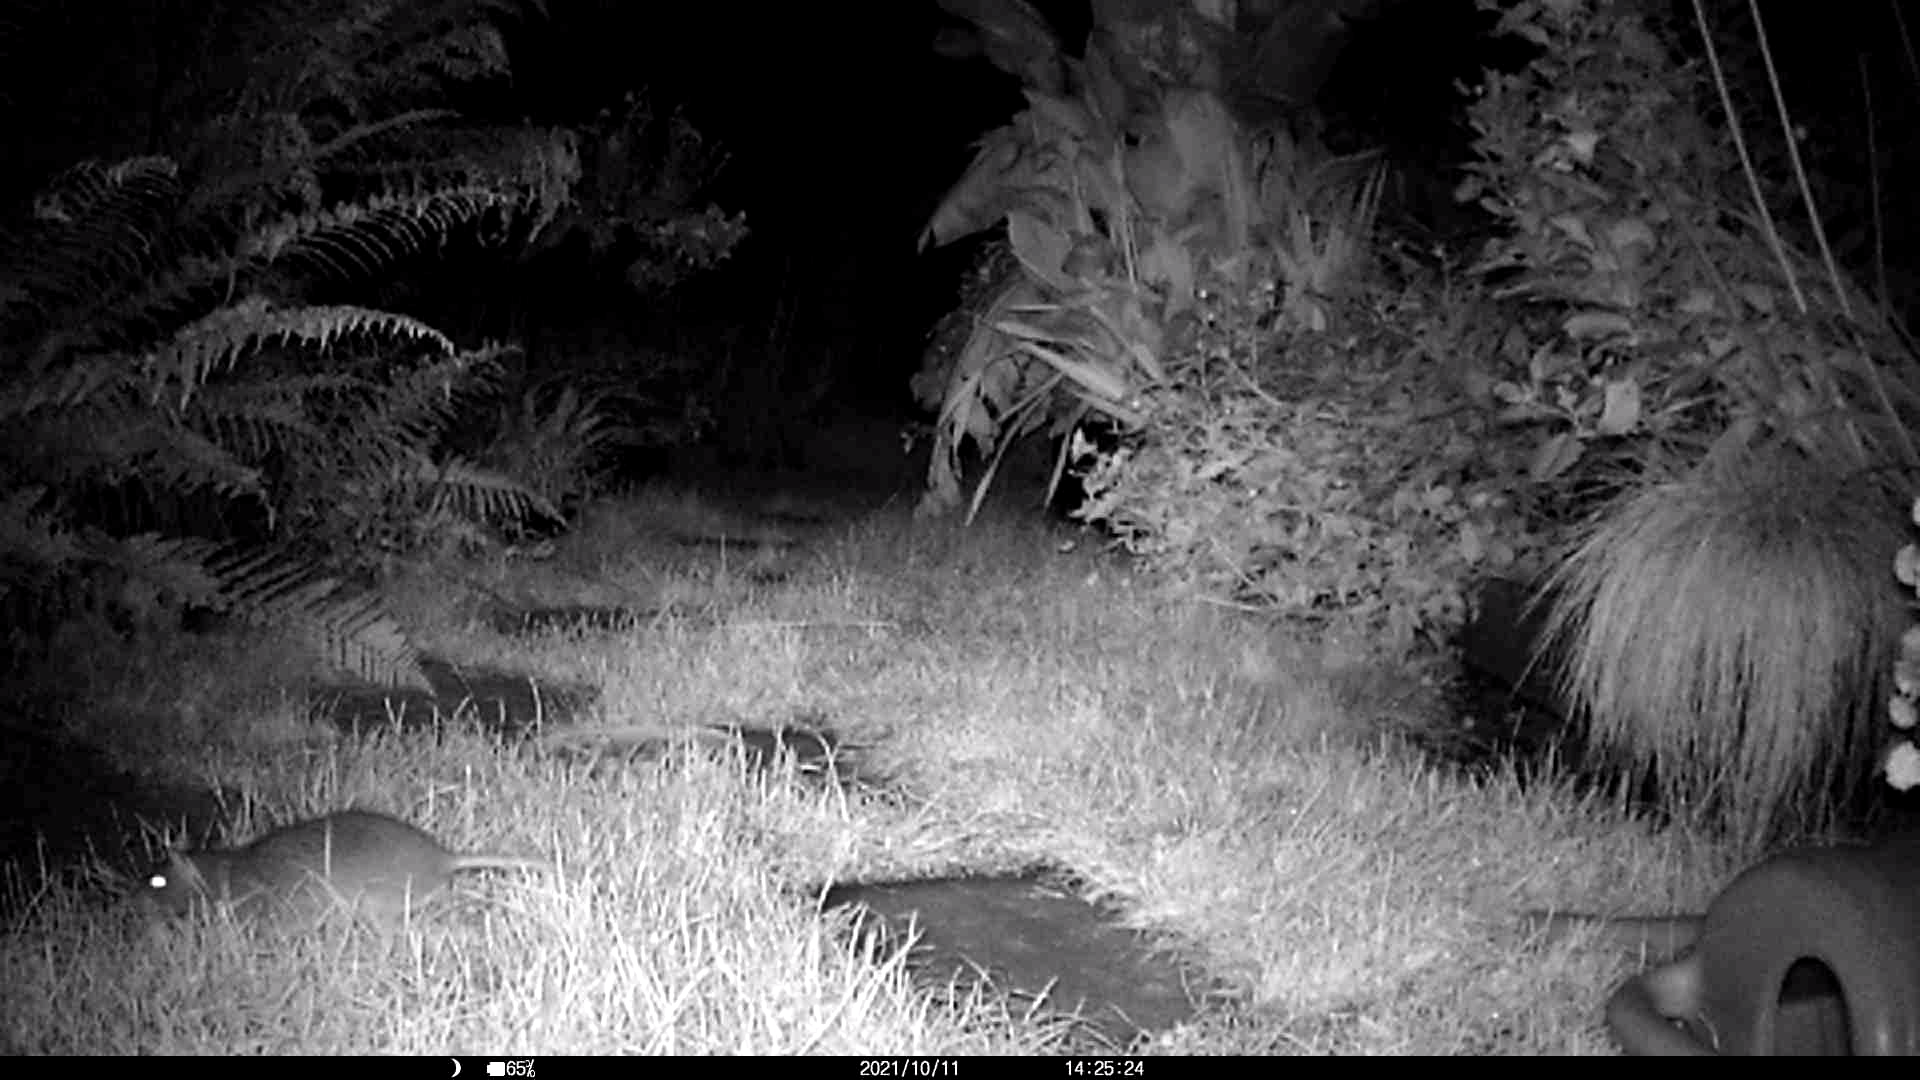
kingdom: Animalia
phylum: Chordata
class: Mammalia
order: Rodentia
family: Muridae
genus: Rattus
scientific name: Rattus norvegicus
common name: Brown rat
